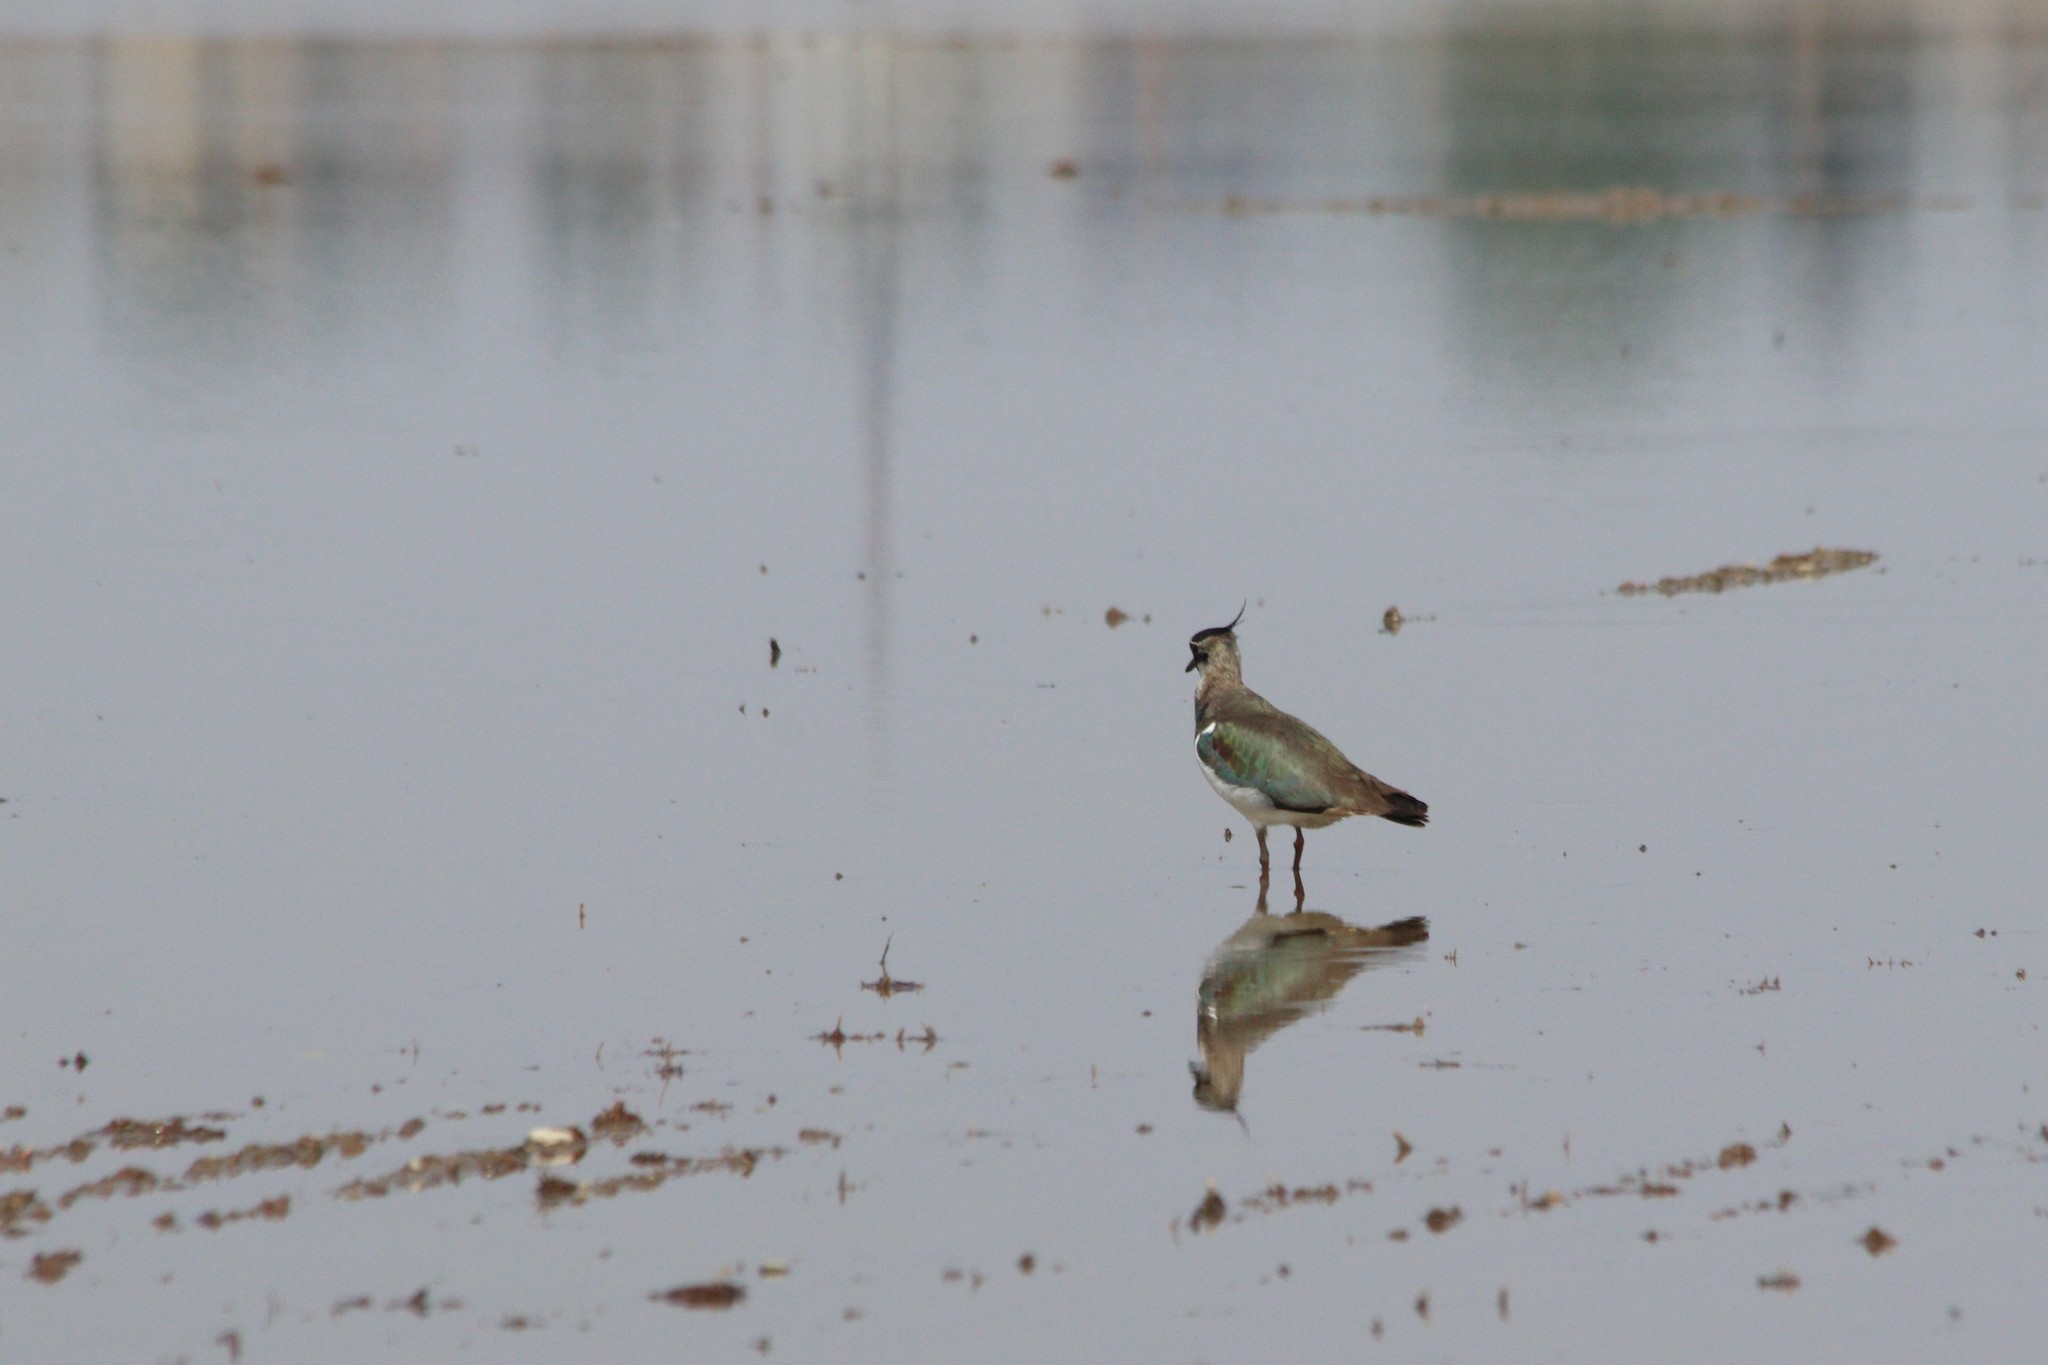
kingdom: Animalia
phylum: Chordata
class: Aves
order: Charadriiformes
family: Charadriidae
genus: Vanellus
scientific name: Vanellus vanellus
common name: Northern lapwing
